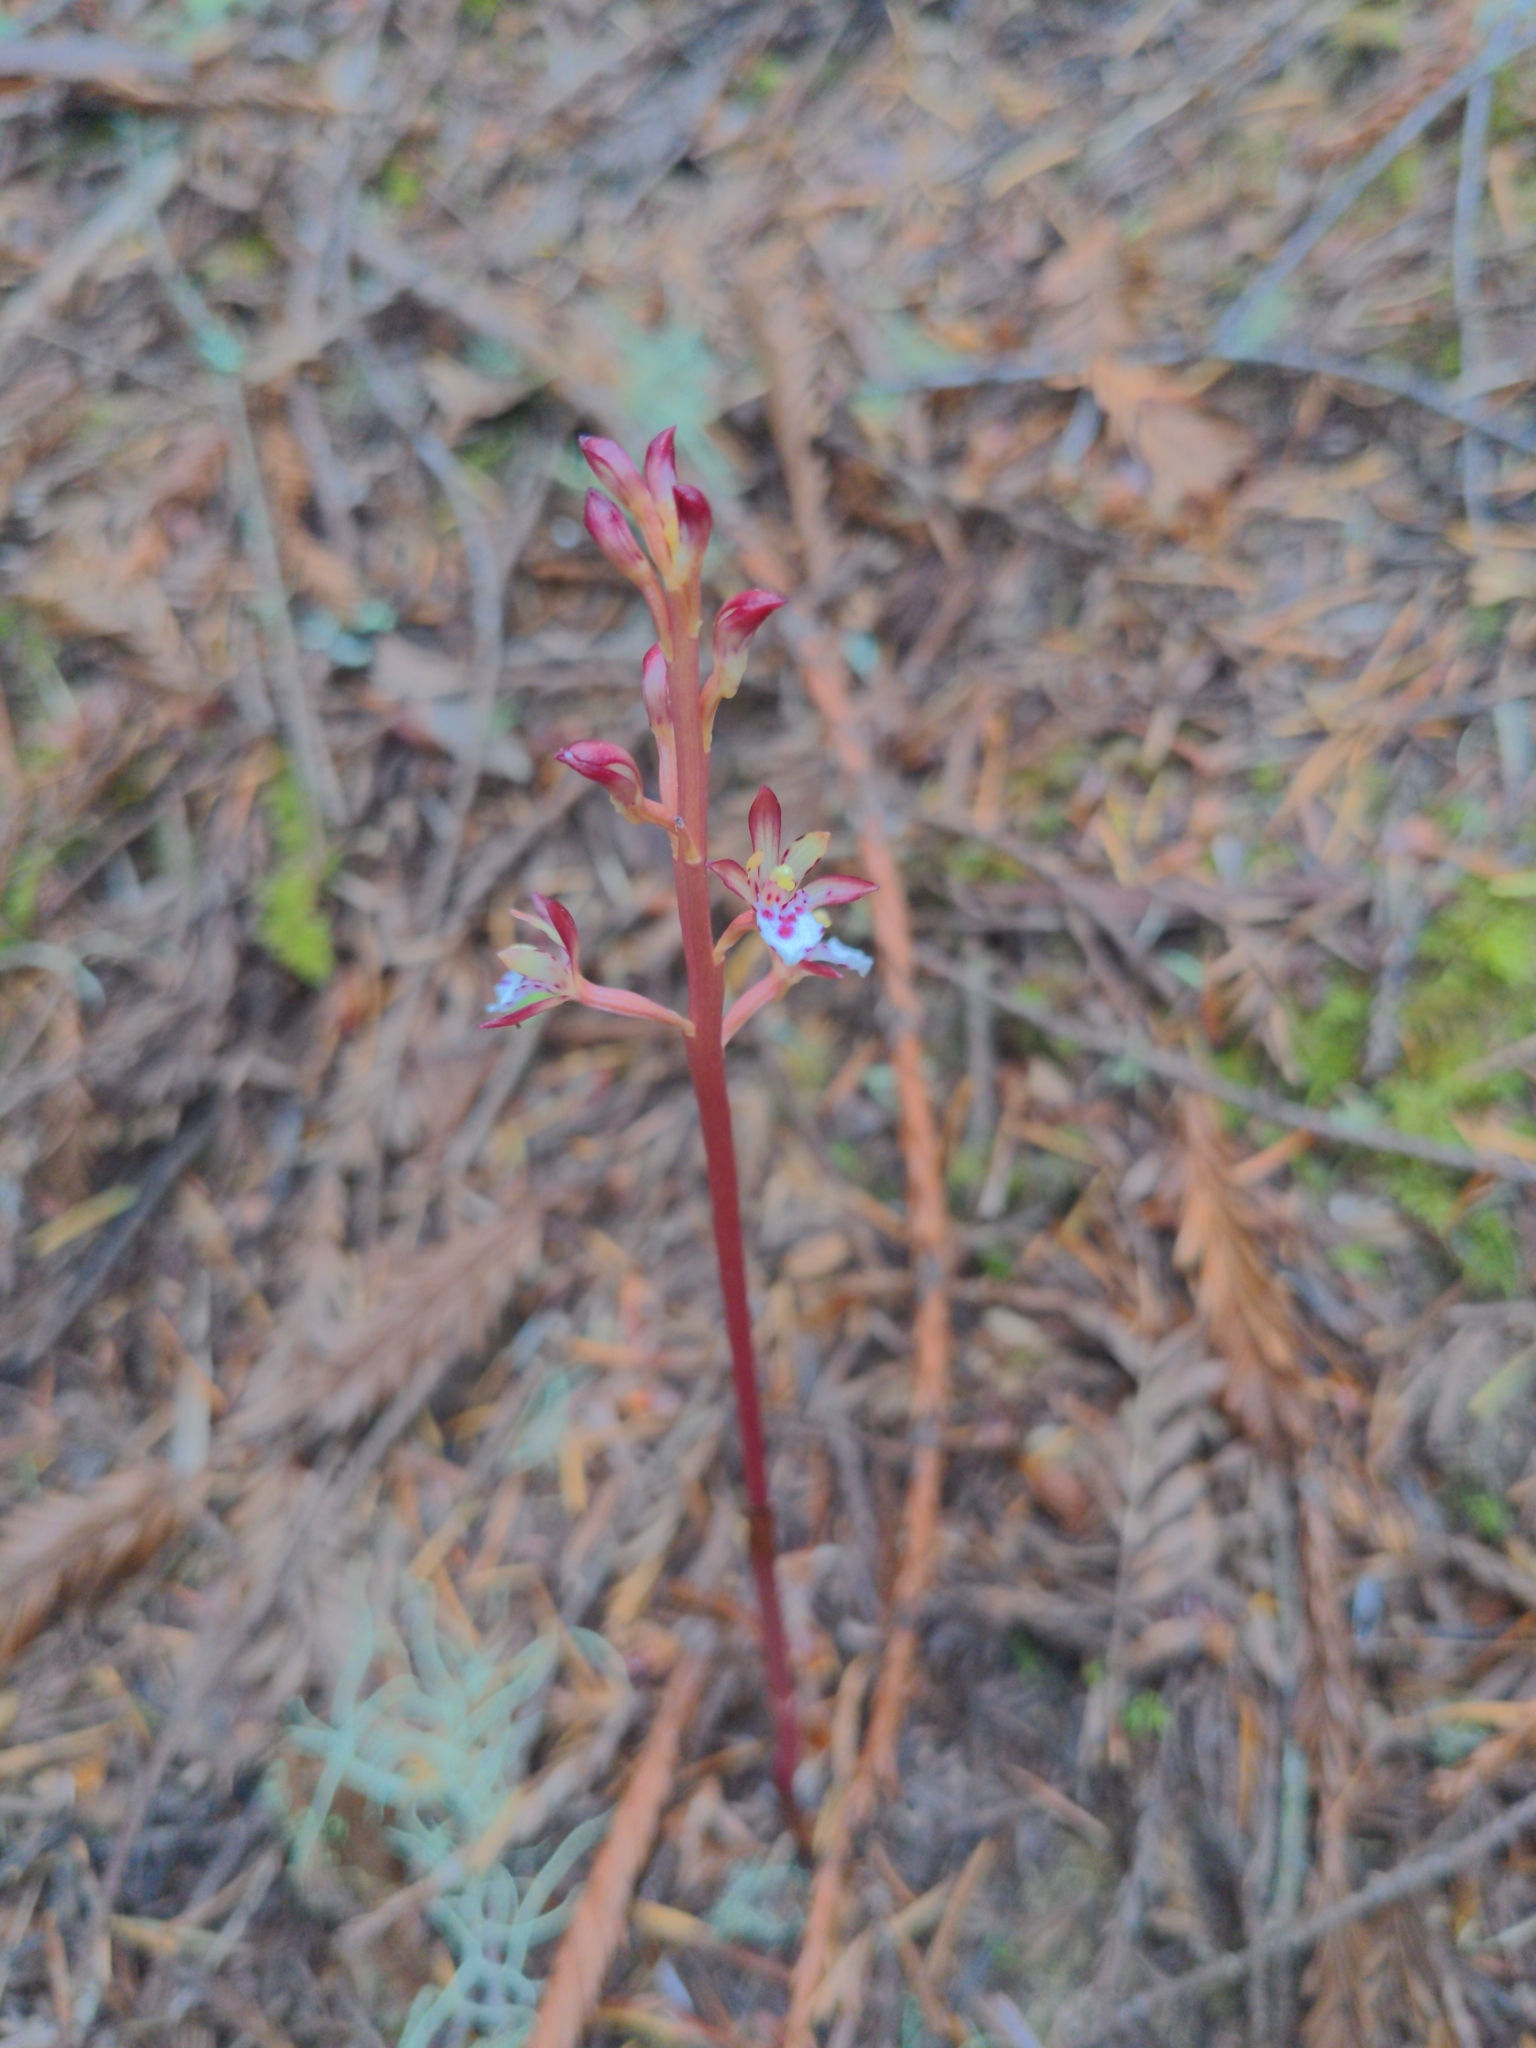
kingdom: Plantae
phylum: Tracheophyta
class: Liliopsida
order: Asparagales
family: Orchidaceae
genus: Corallorhiza
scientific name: Corallorhiza maculata
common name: Spotted coralroot
